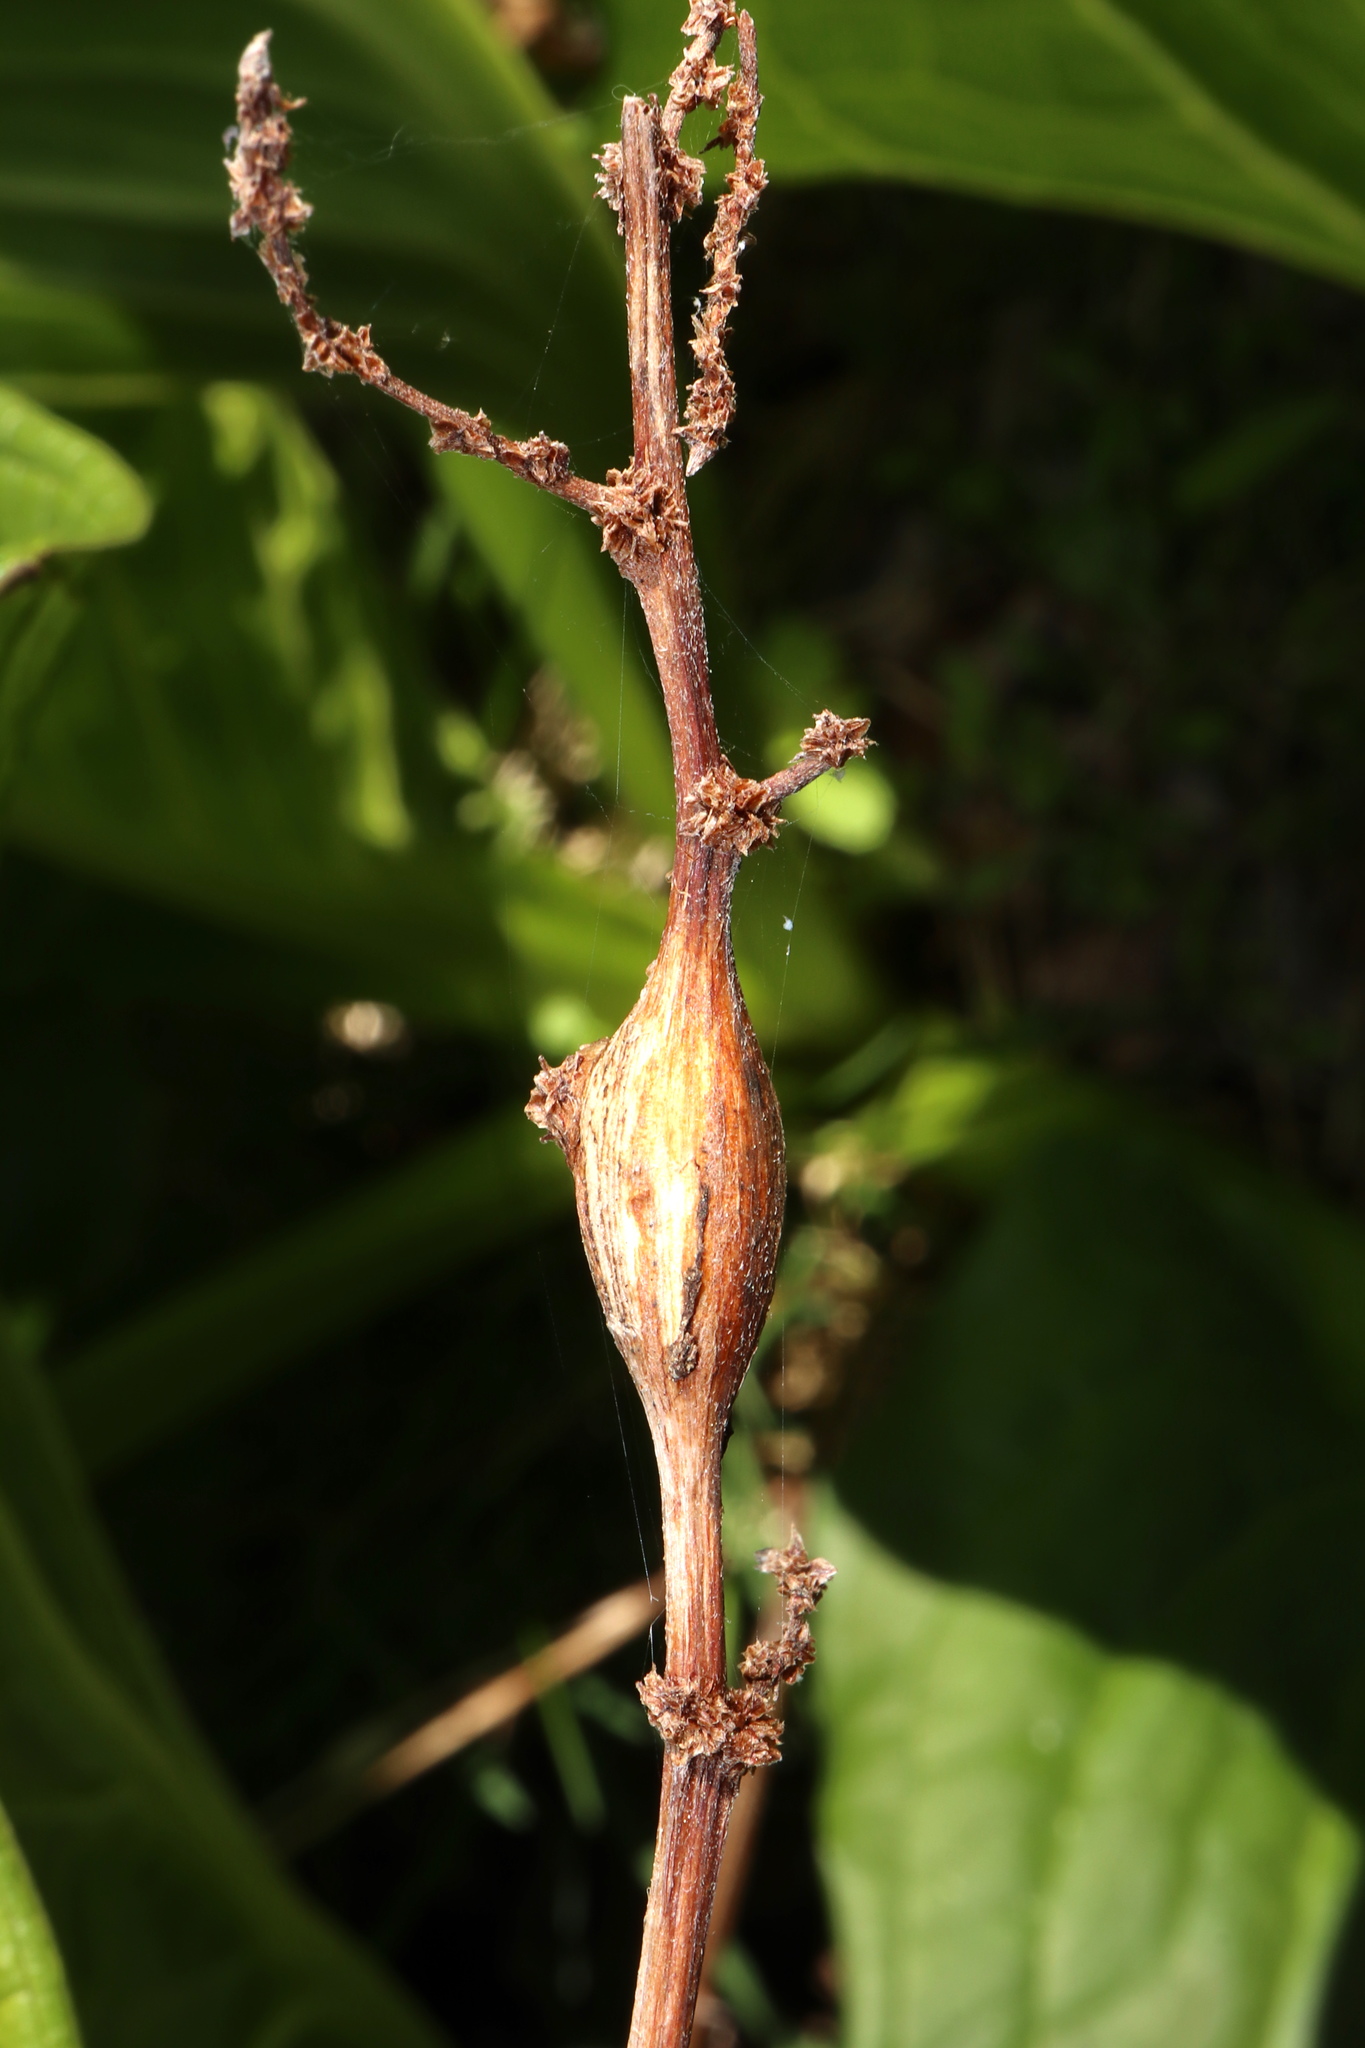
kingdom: Animalia
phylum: Arthropoda
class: Insecta
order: Diptera
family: Cecidomyiidae
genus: Neolasioptera
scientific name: Neolasioptera boehmeriae
